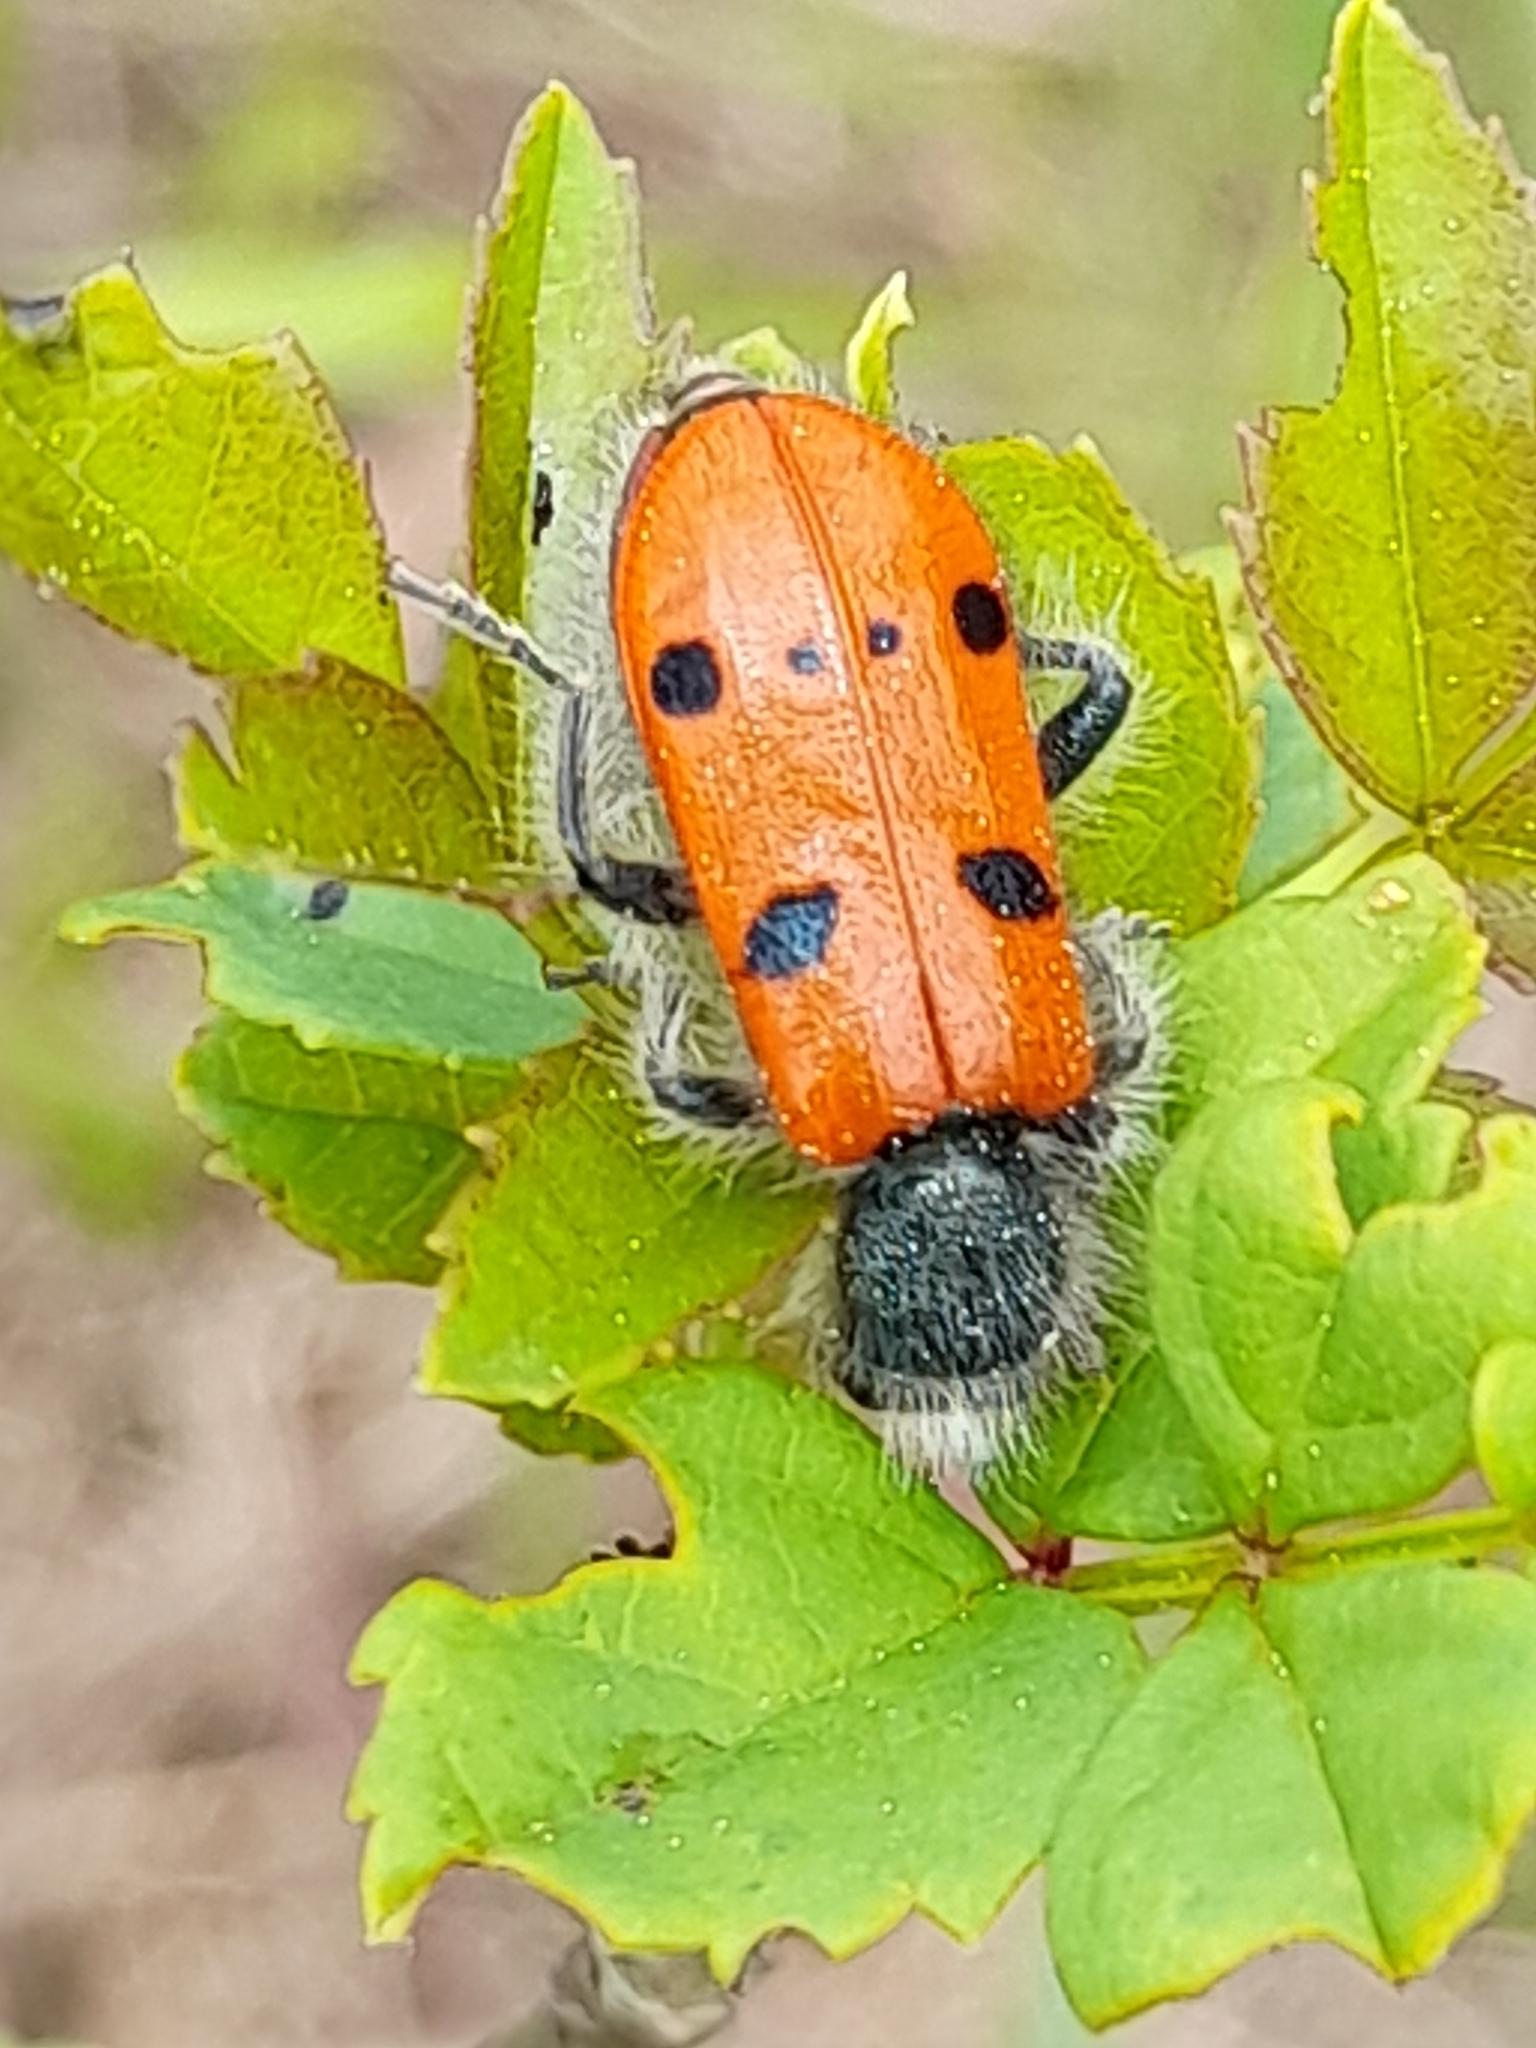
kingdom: Animalia
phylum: Arthropoda
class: Insecta
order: Coleoptera
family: Cleridae
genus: Trichodes
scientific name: Trichodes octopunctatus
